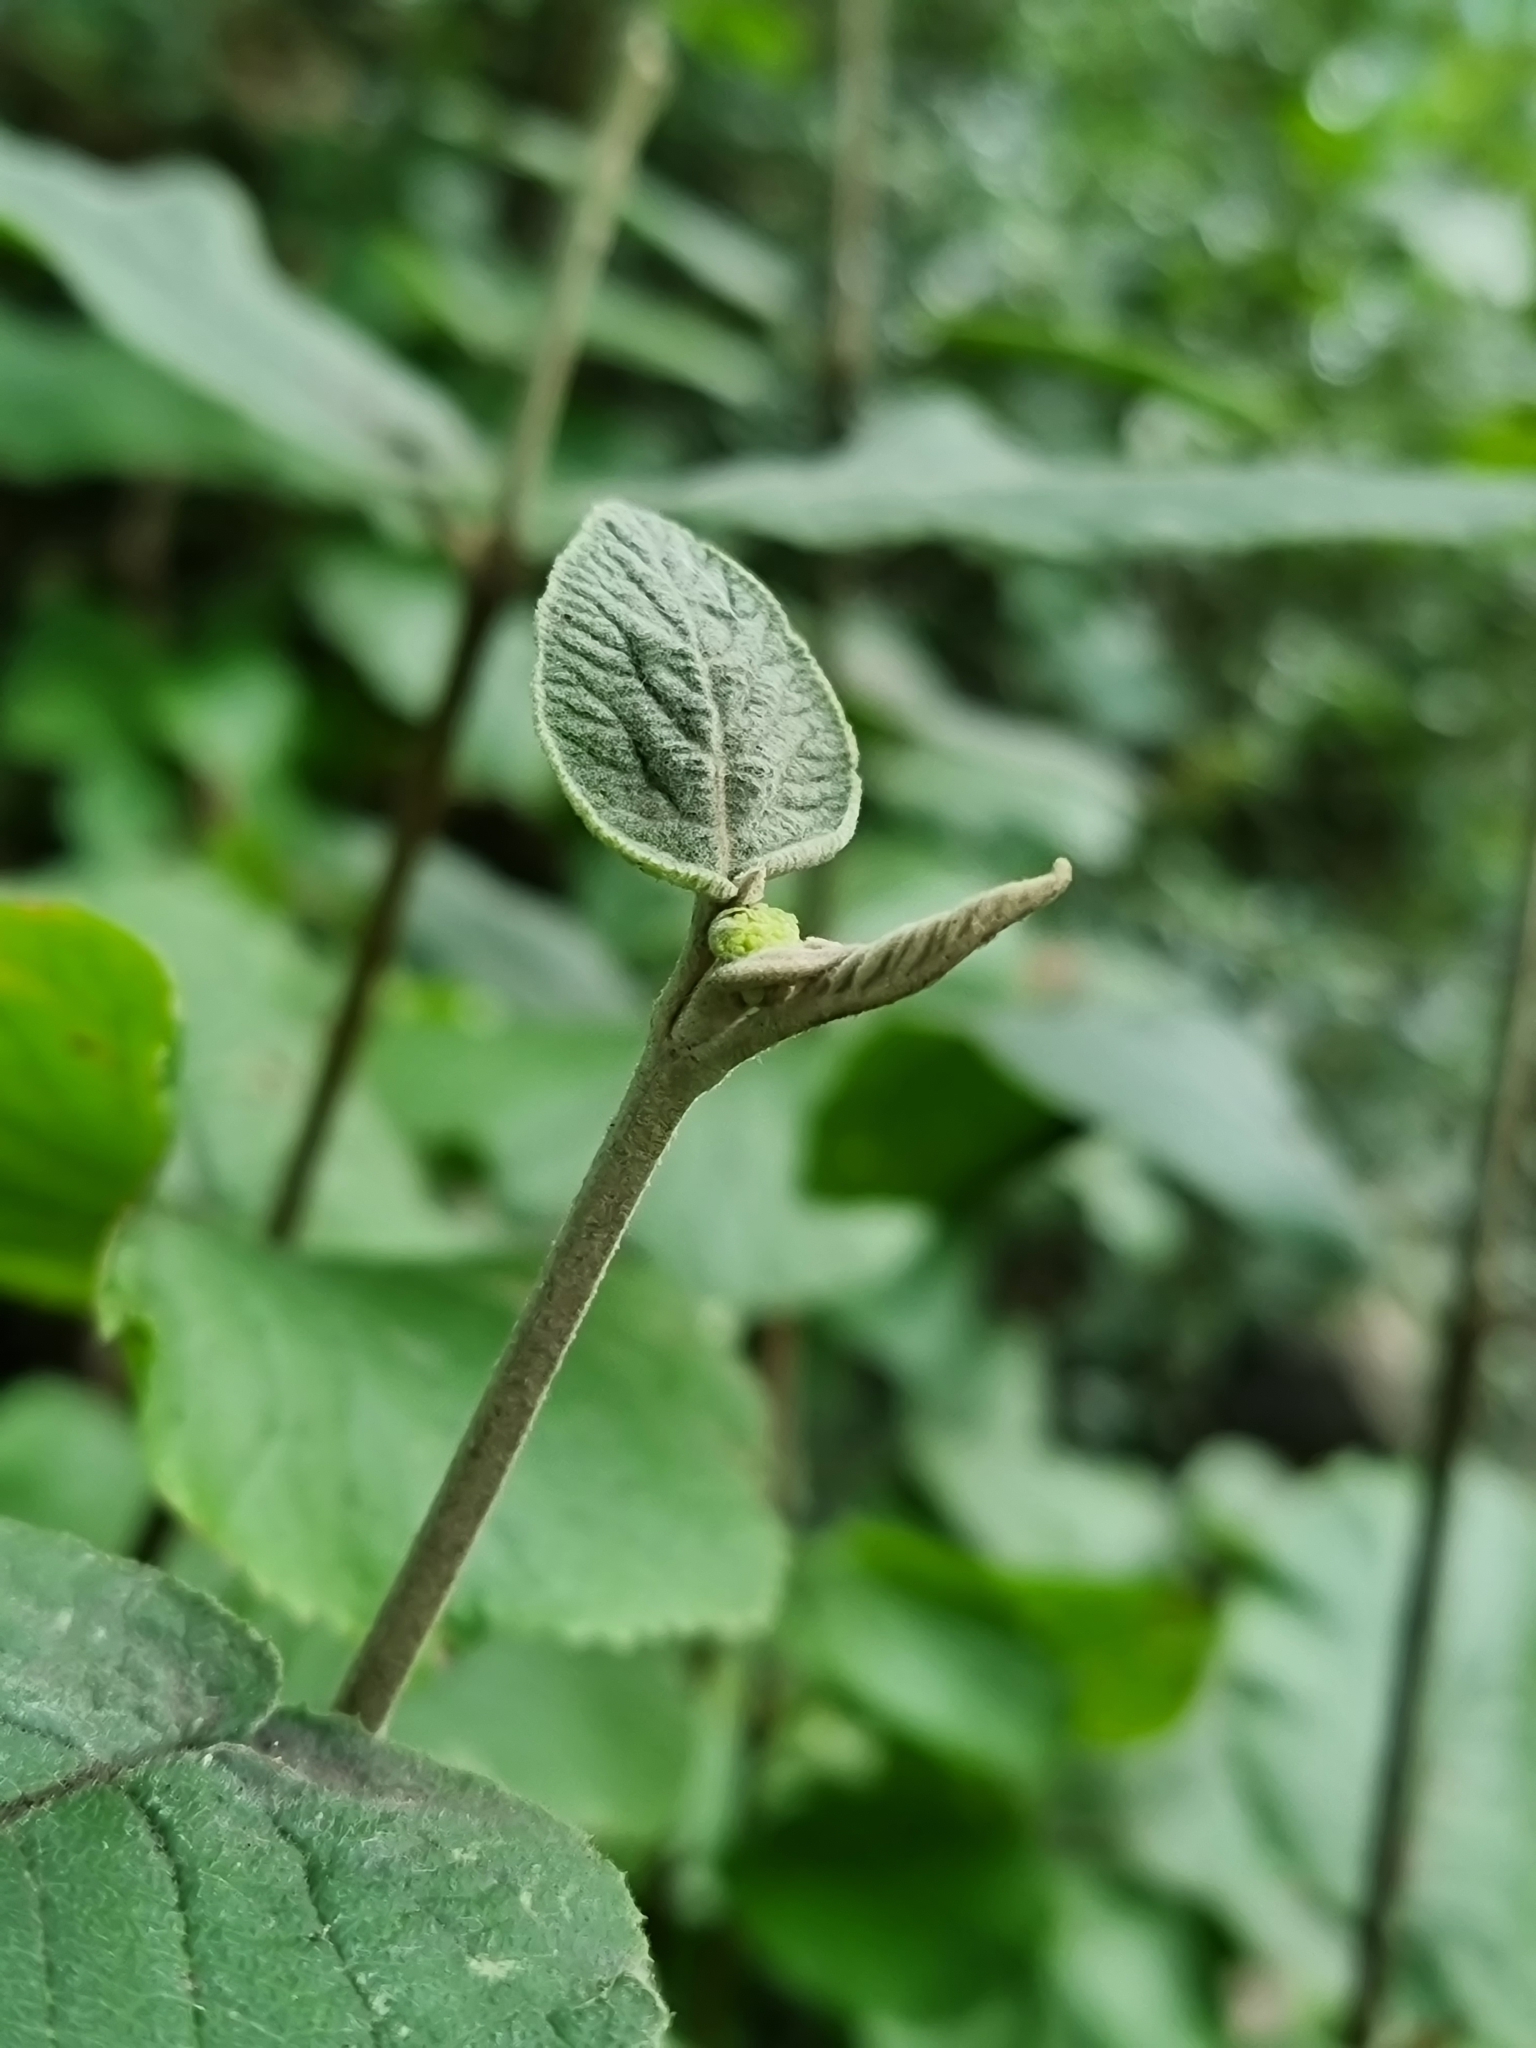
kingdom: Plantae
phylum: Tracheophyta
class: Magnoliopsida
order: Dipsacales
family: Viburnaceae
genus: Viburnum
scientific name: Viburnum lantana
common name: Wayfaring tree
